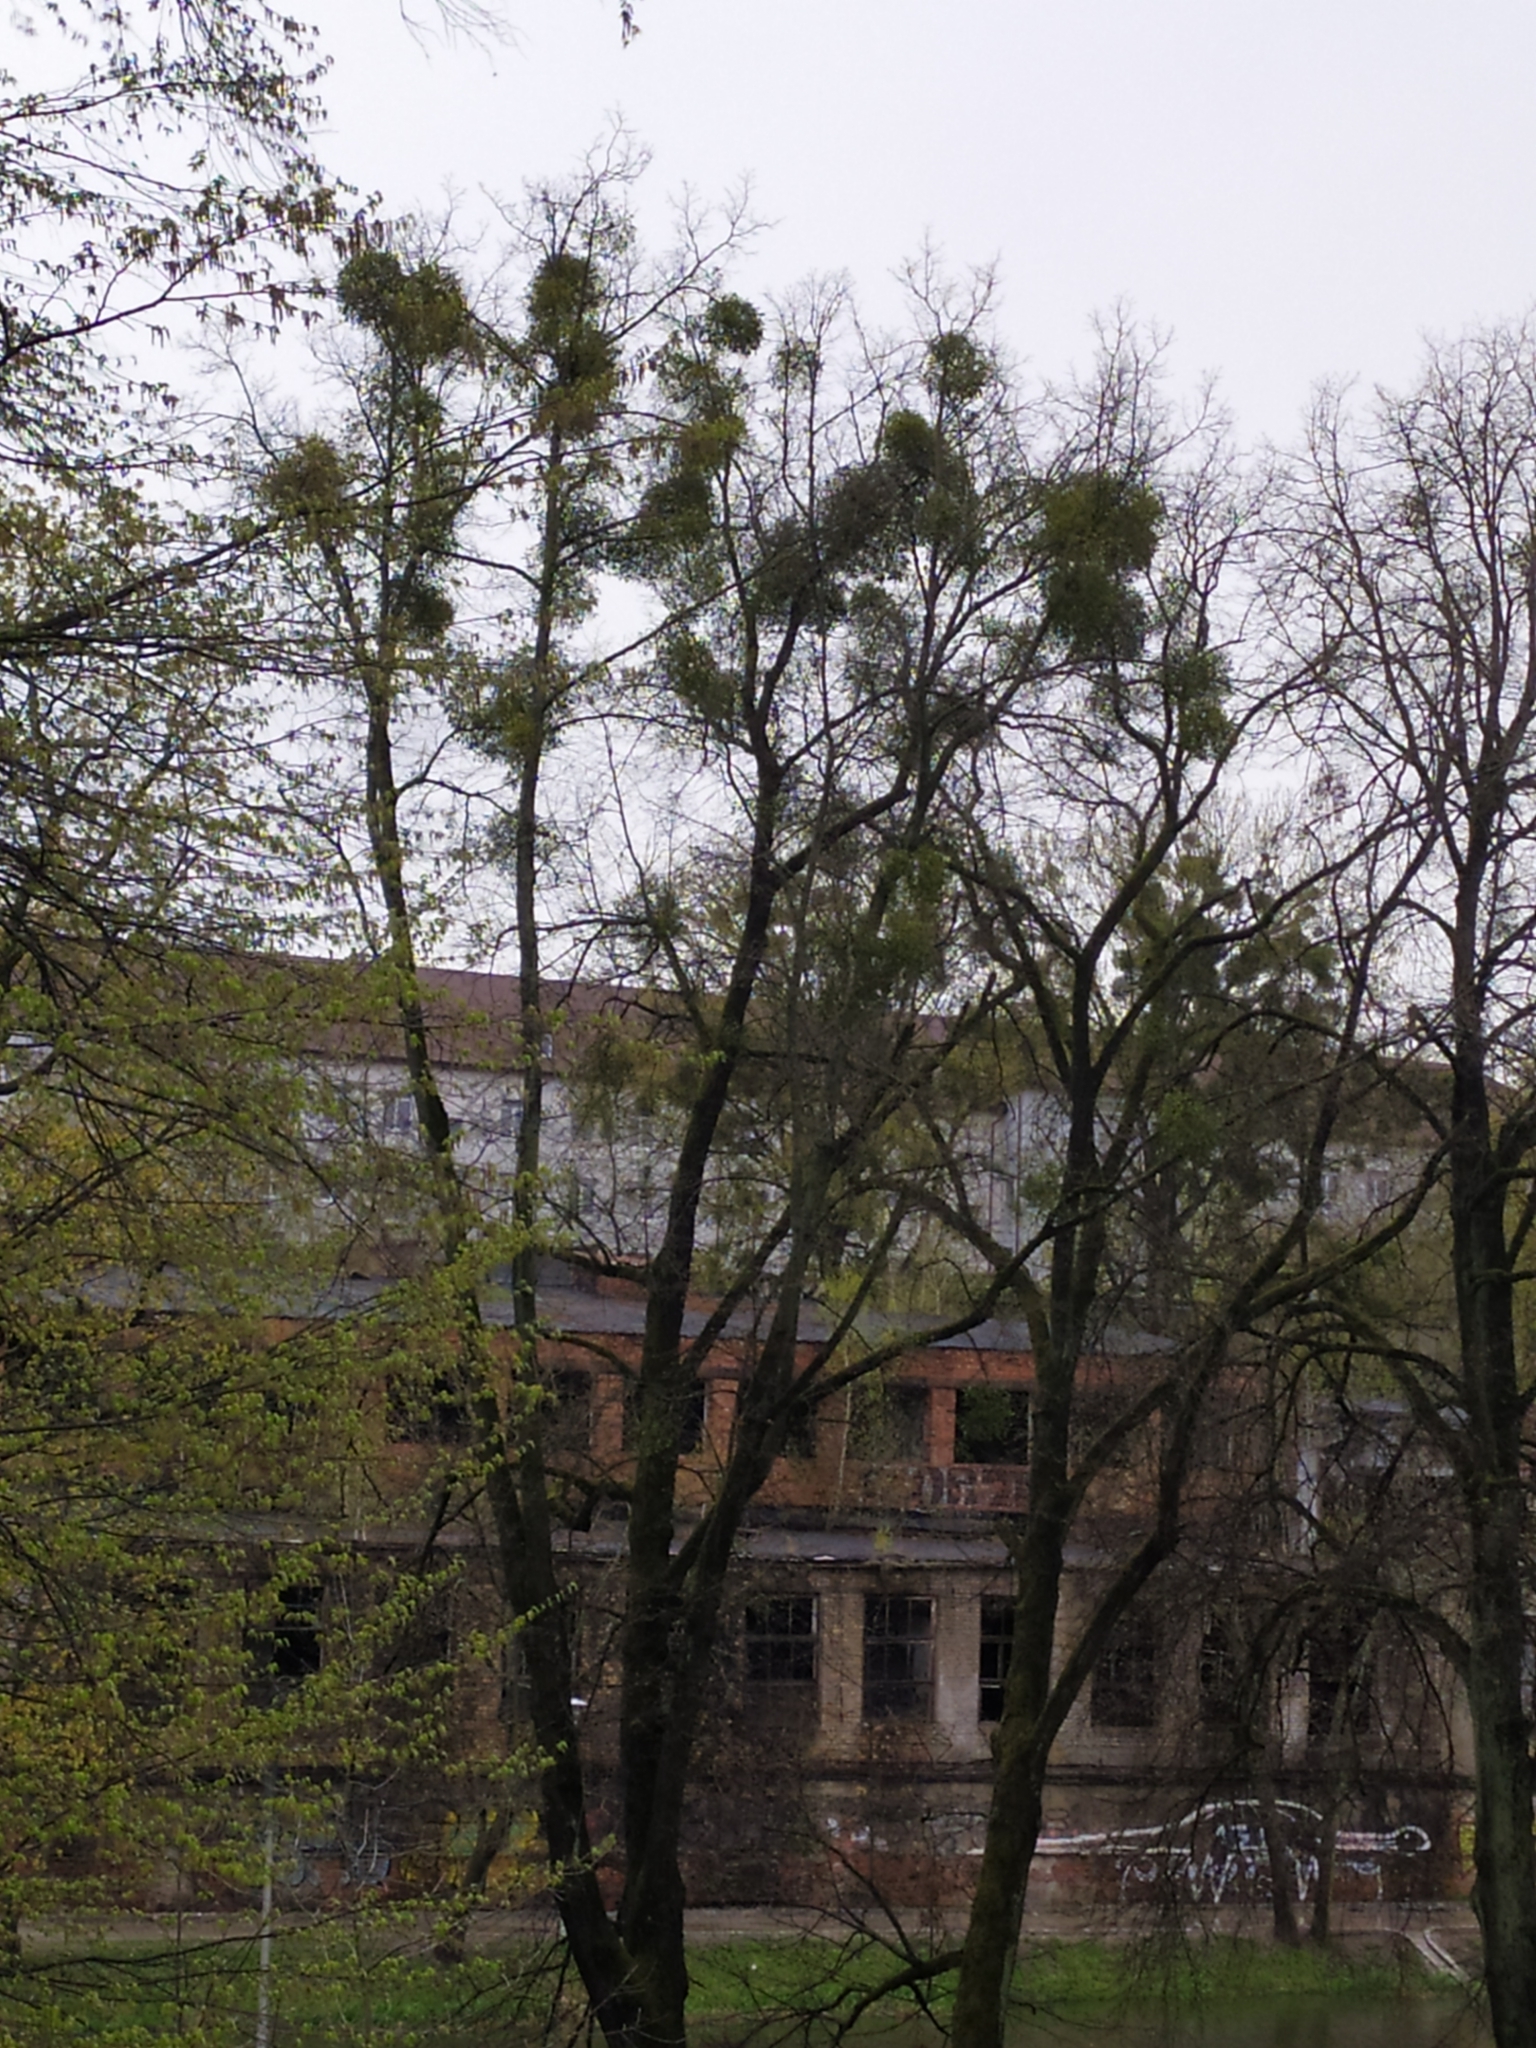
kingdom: Plantae
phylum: Tracheophyta
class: Magnoliopsida
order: Santalales
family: Viscaceae
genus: Viscum
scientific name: Viscum album
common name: Mistletoe
